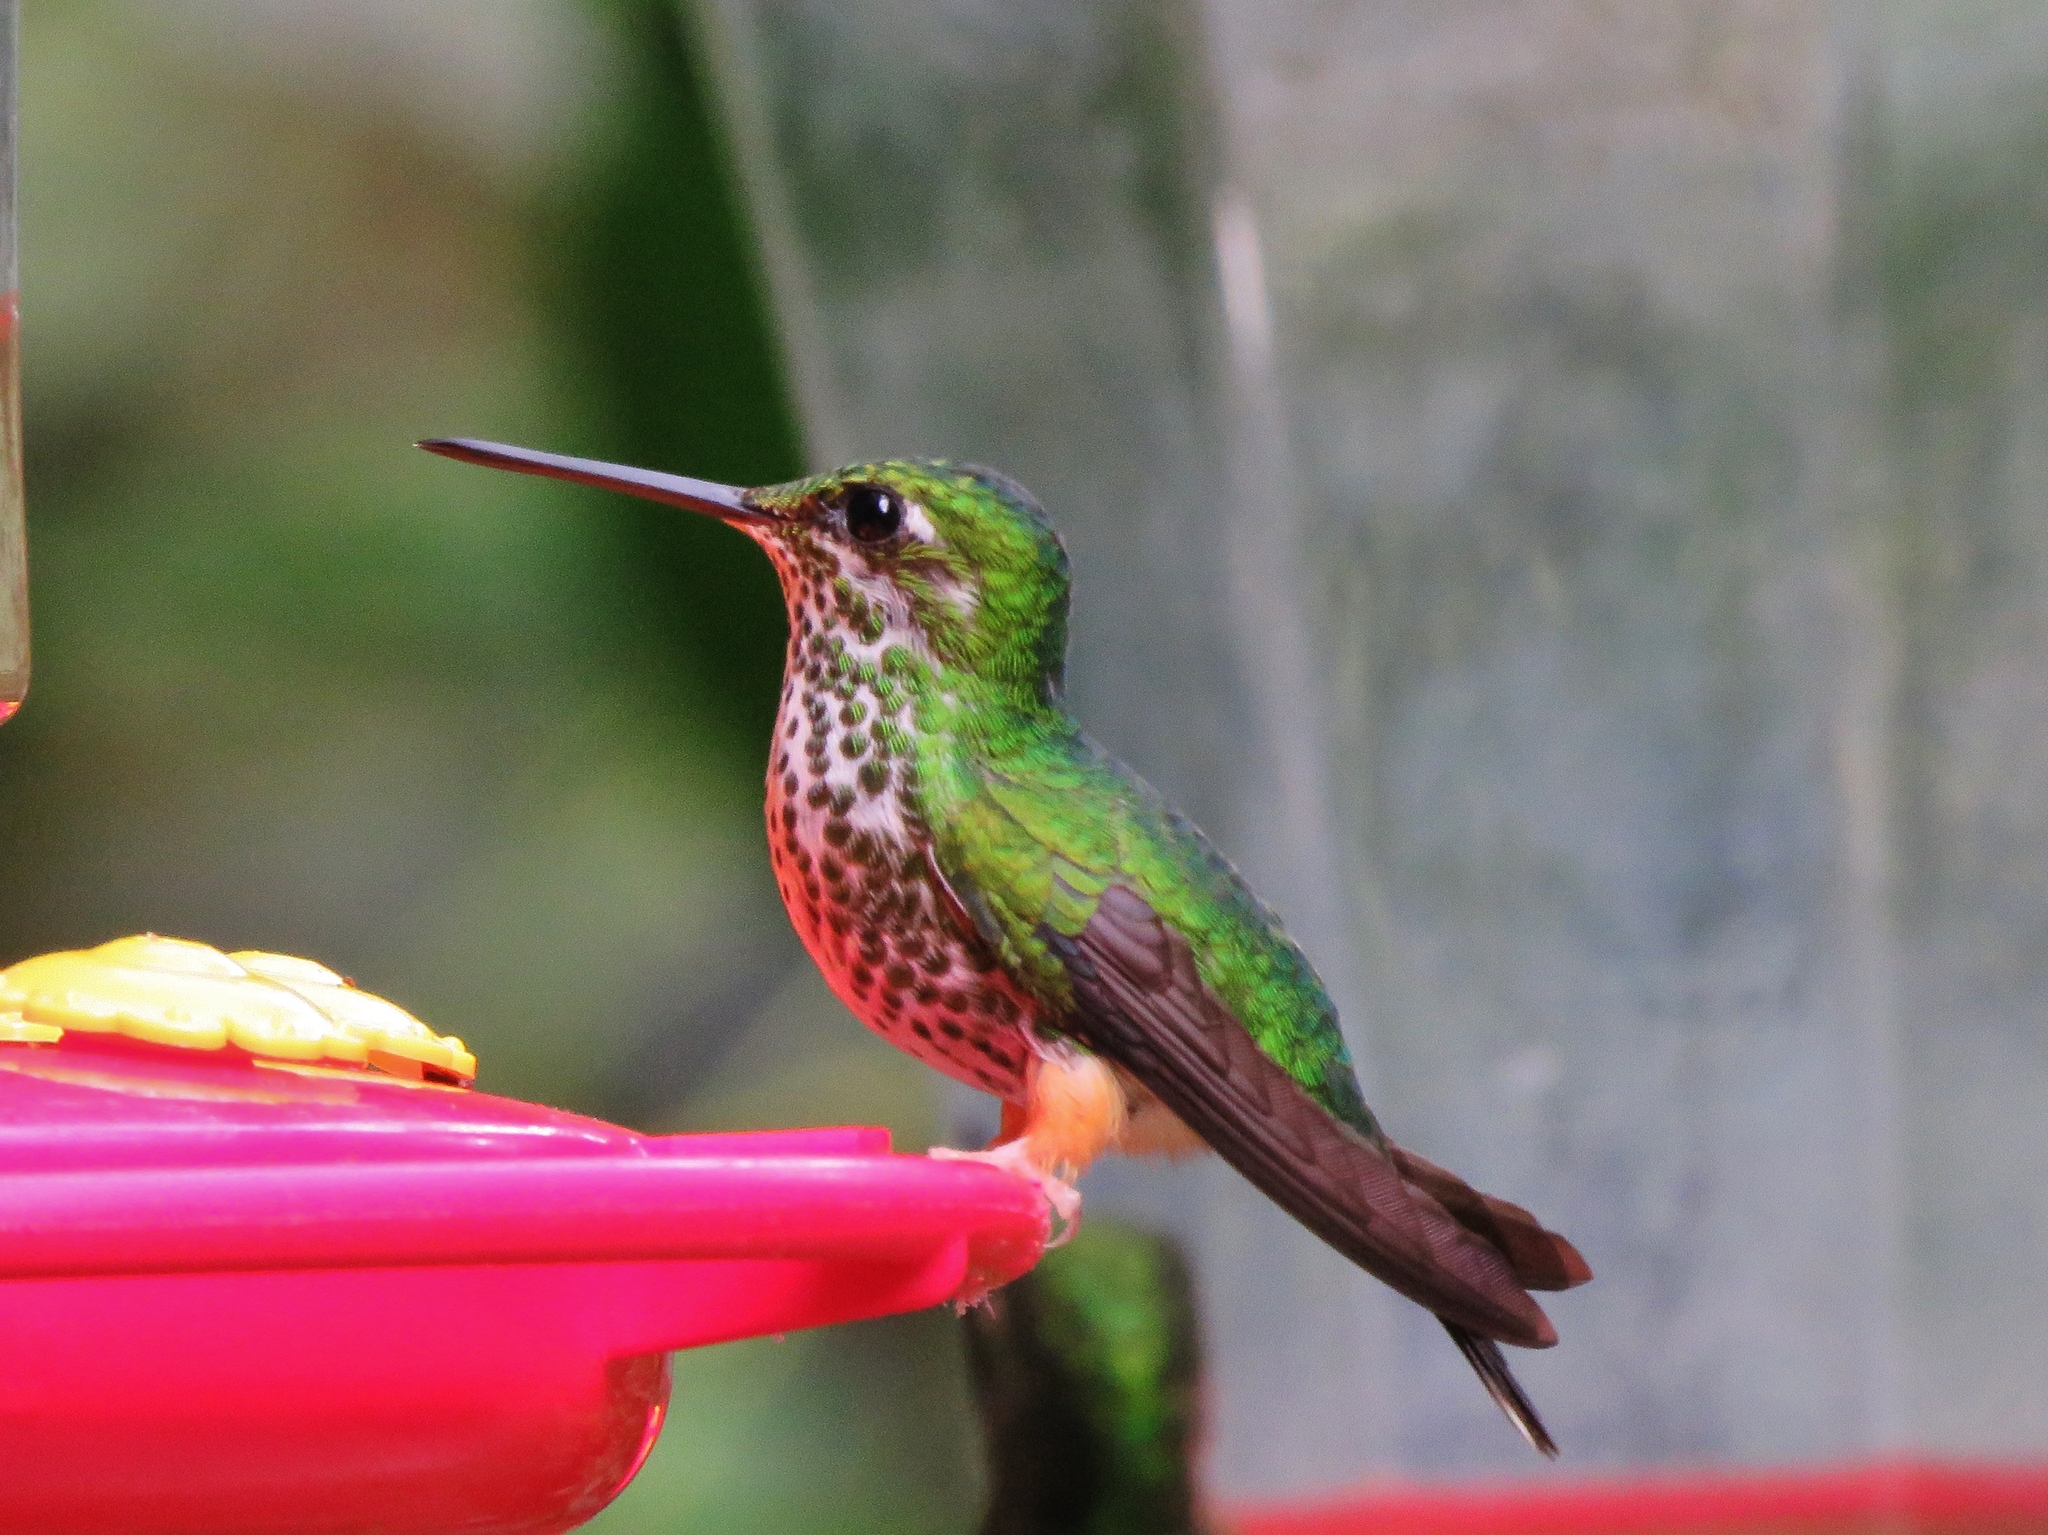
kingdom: Animalia
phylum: Chordata
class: Aves
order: Apodiformes
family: Trochilidae
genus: Ocreatus
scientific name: Ocreatus addae
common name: Rufous-booted racket-tail
